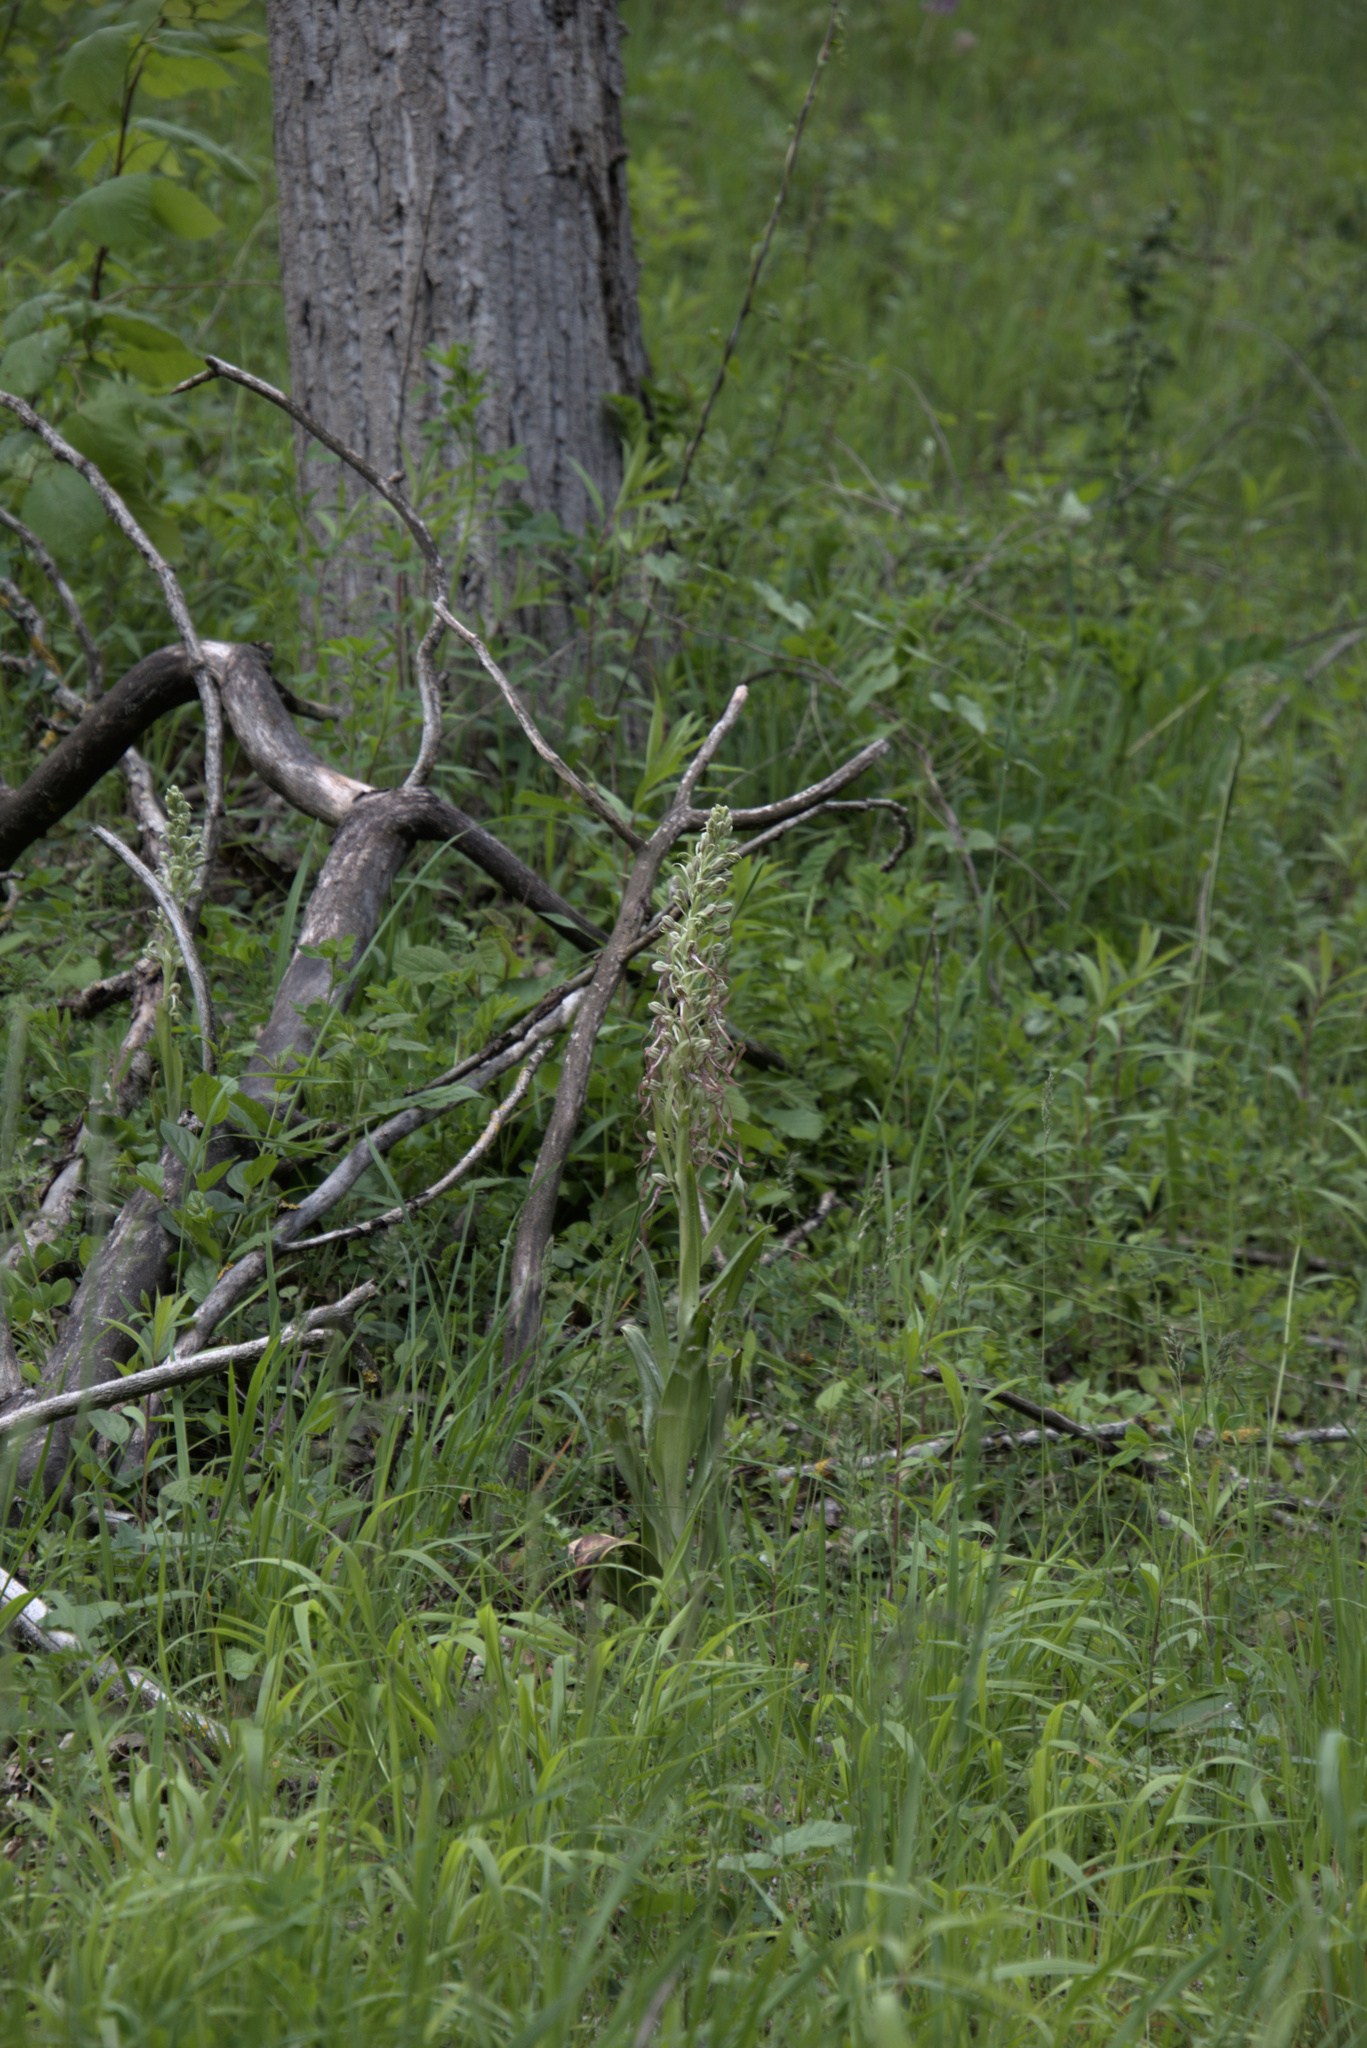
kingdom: Plantae
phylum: Tracheophyta
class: Liliopsida
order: Asparagales
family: Orchidaceae
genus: Himantoglossum
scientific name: Himantoglossum hircinum
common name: Lizard orchid
